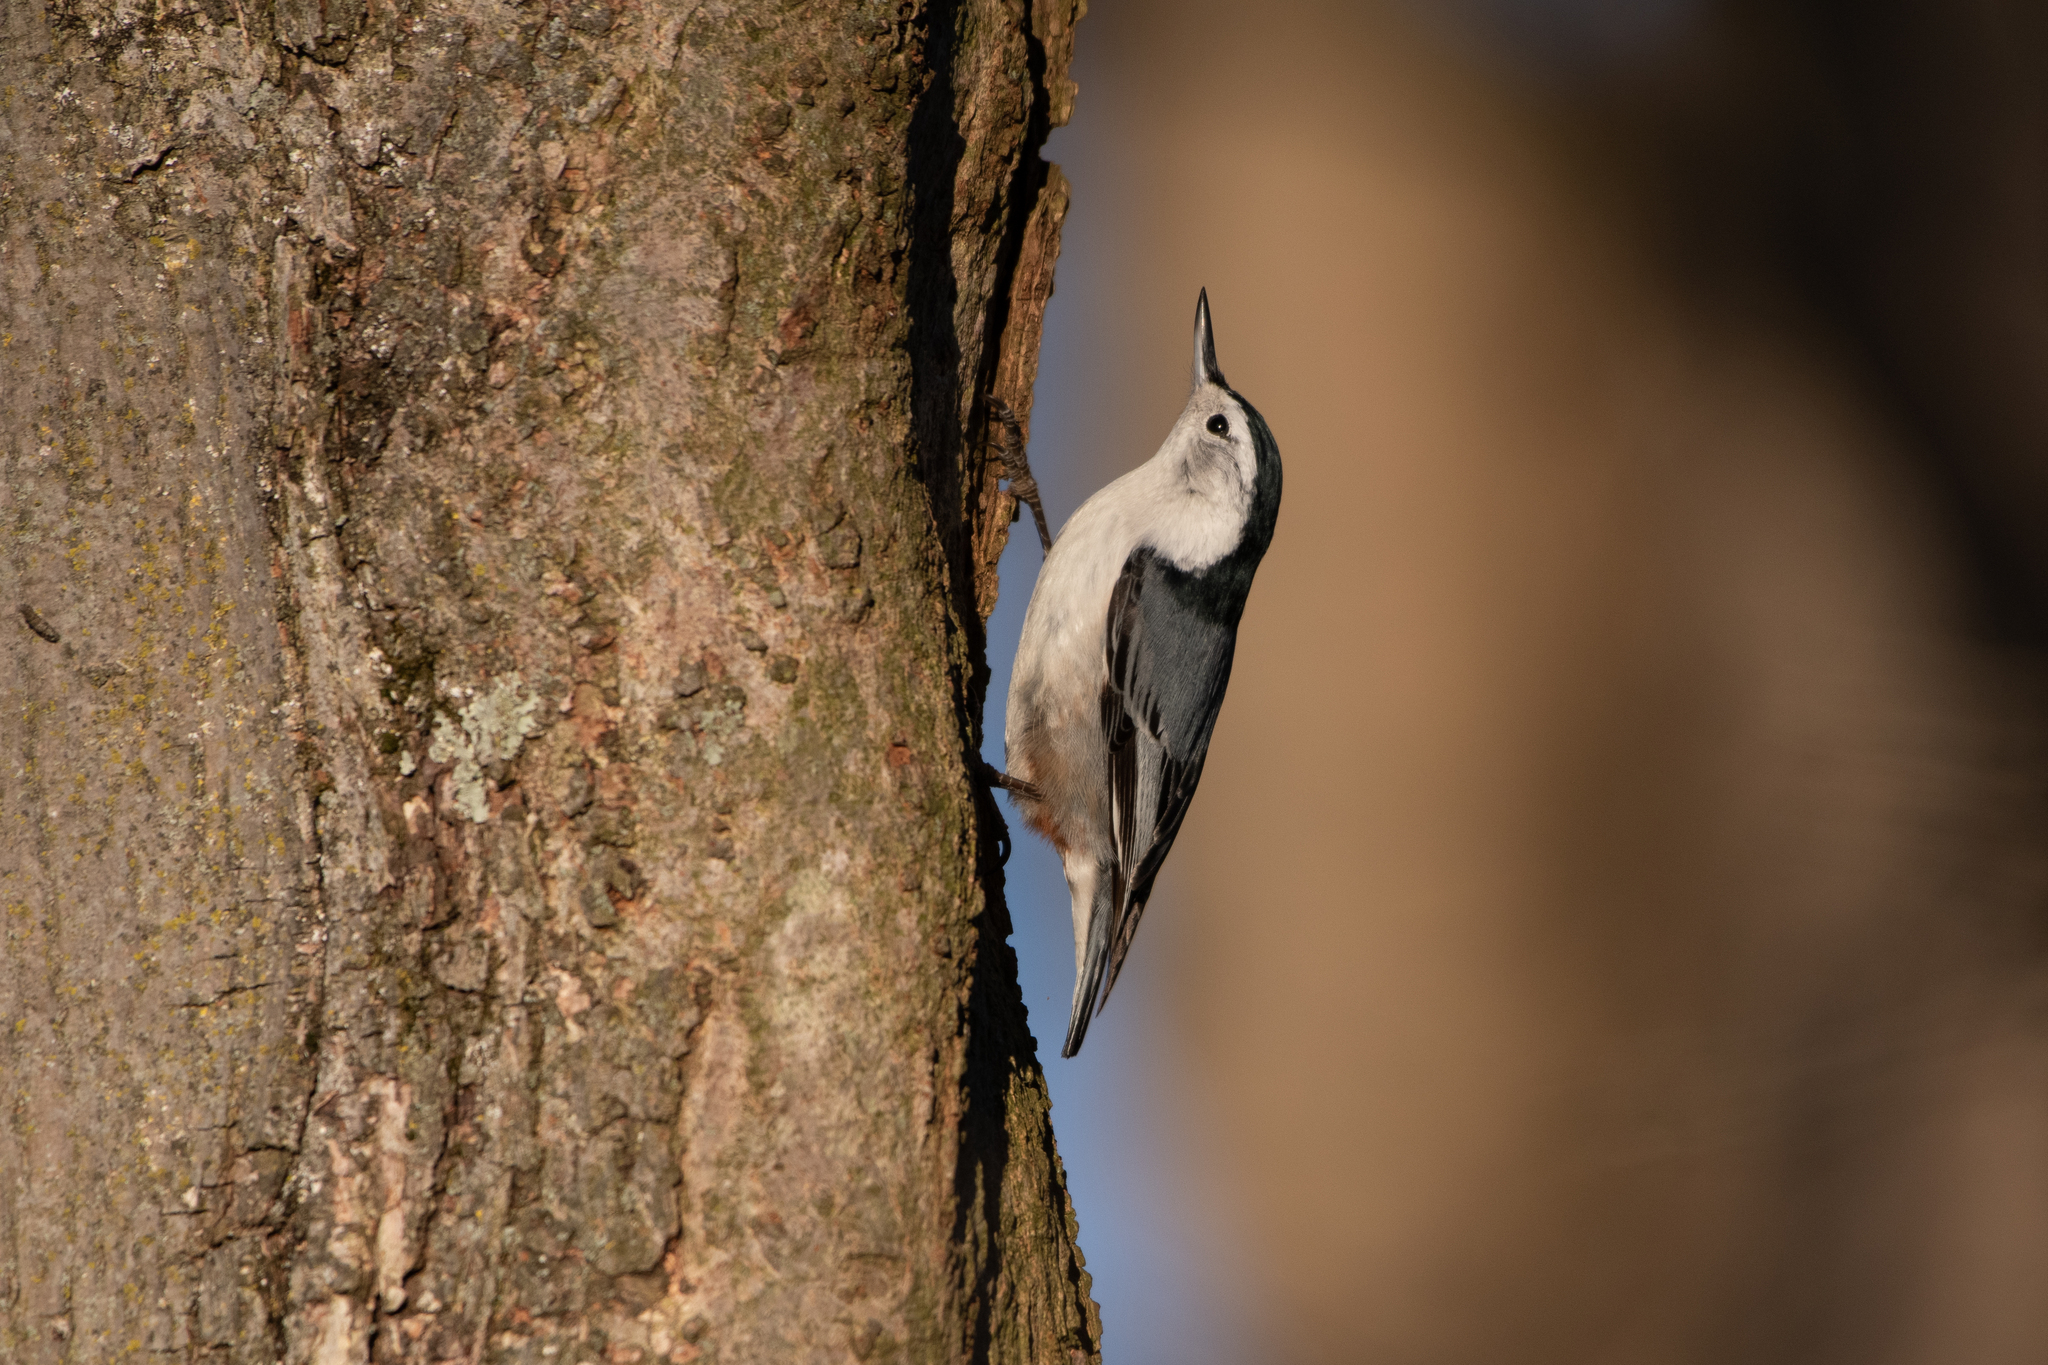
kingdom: Animalia
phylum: Chordata
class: Aves
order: Passeriformes
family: Sittidae
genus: Sitta
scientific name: Sitta carolinensis
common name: White-breasted nuthatch
